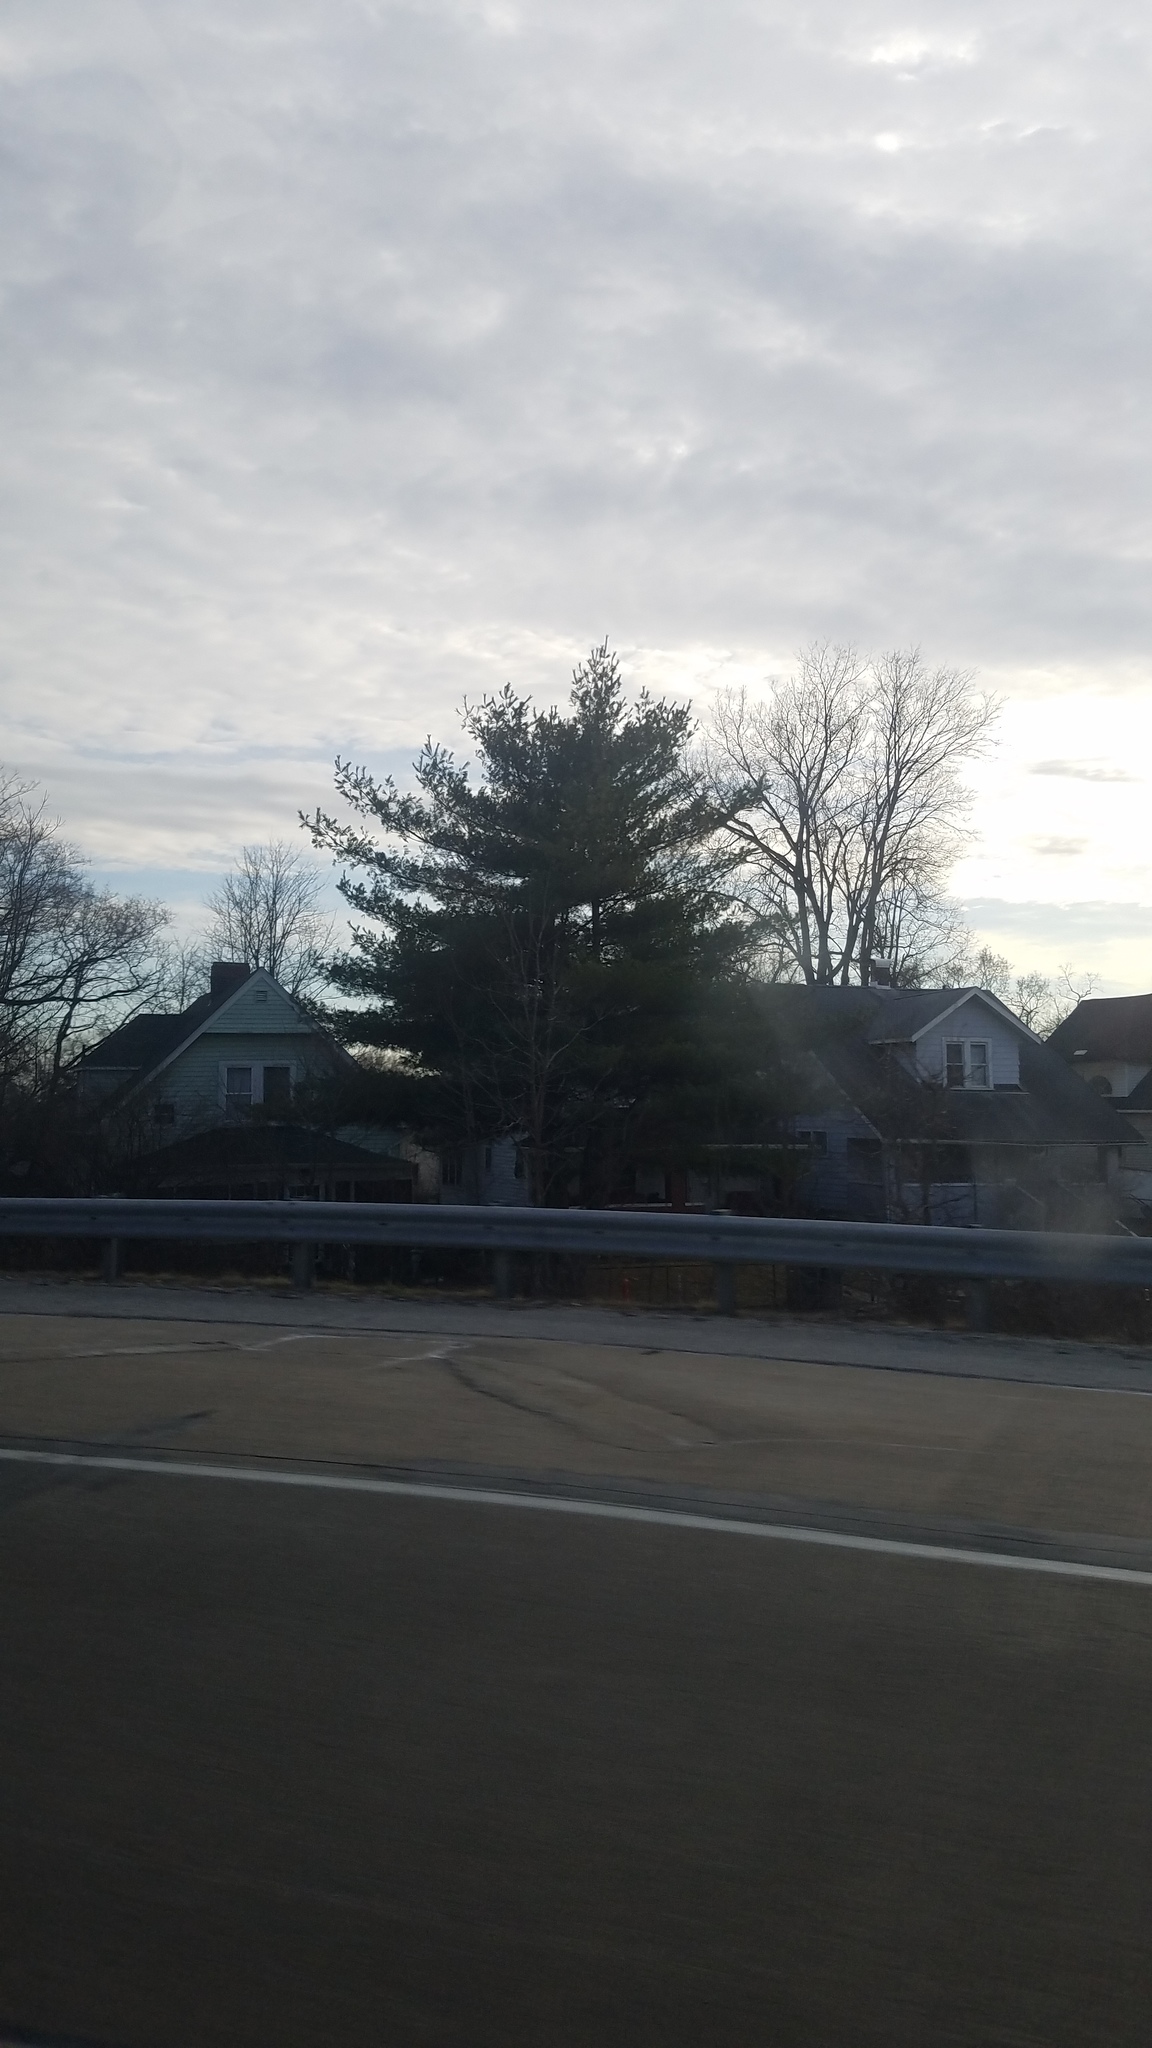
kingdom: Plantae
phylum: Tracheophyta
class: Pinopsida
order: Pinales
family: Pinaceae
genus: Pinus
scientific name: Pinus strobus
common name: Weymouth pine
